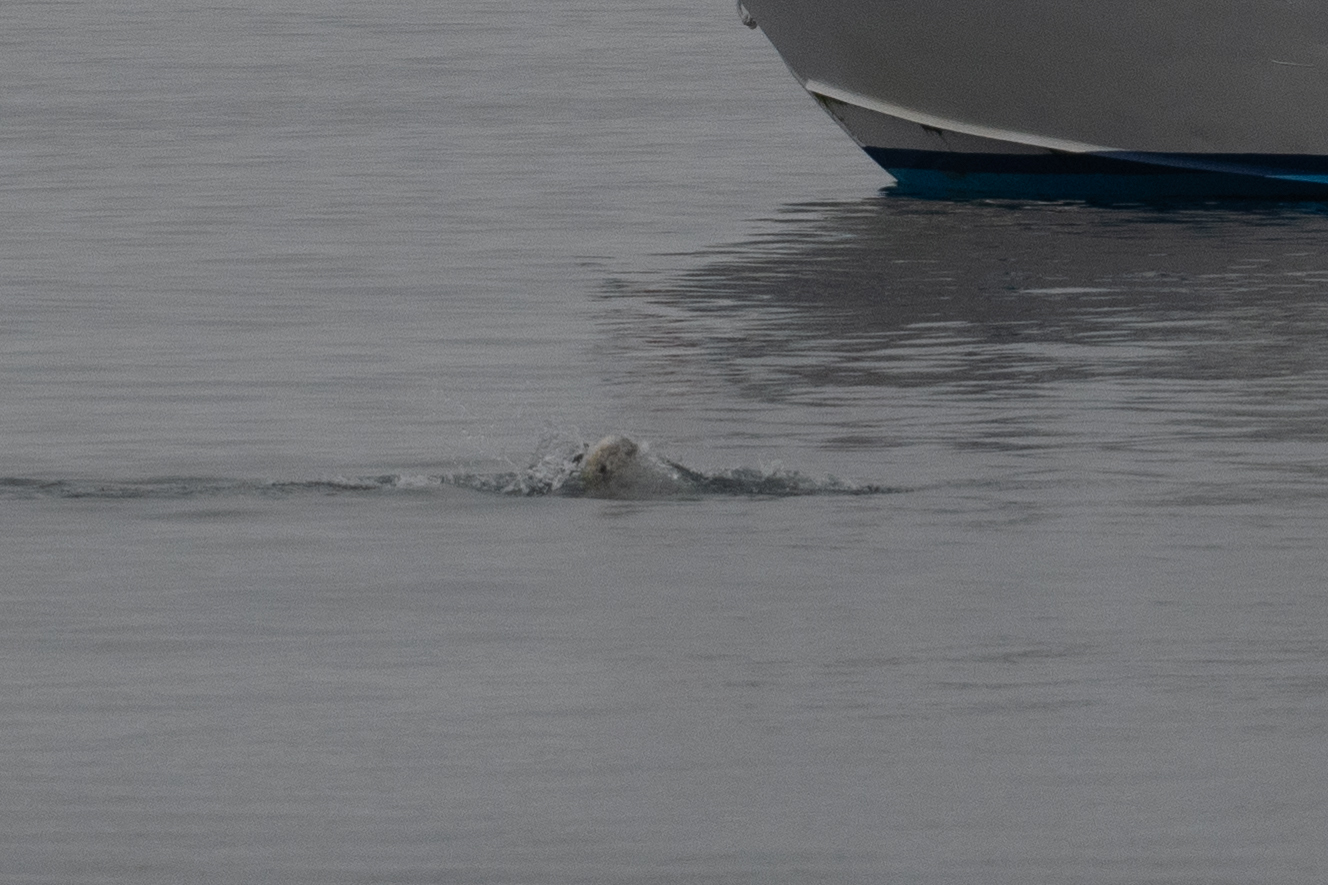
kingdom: Animalia
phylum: Chordata
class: Mammalia
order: Cetacea
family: Delphinidae
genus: Grampus
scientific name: Grampus griseus
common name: Risso's dolphin
